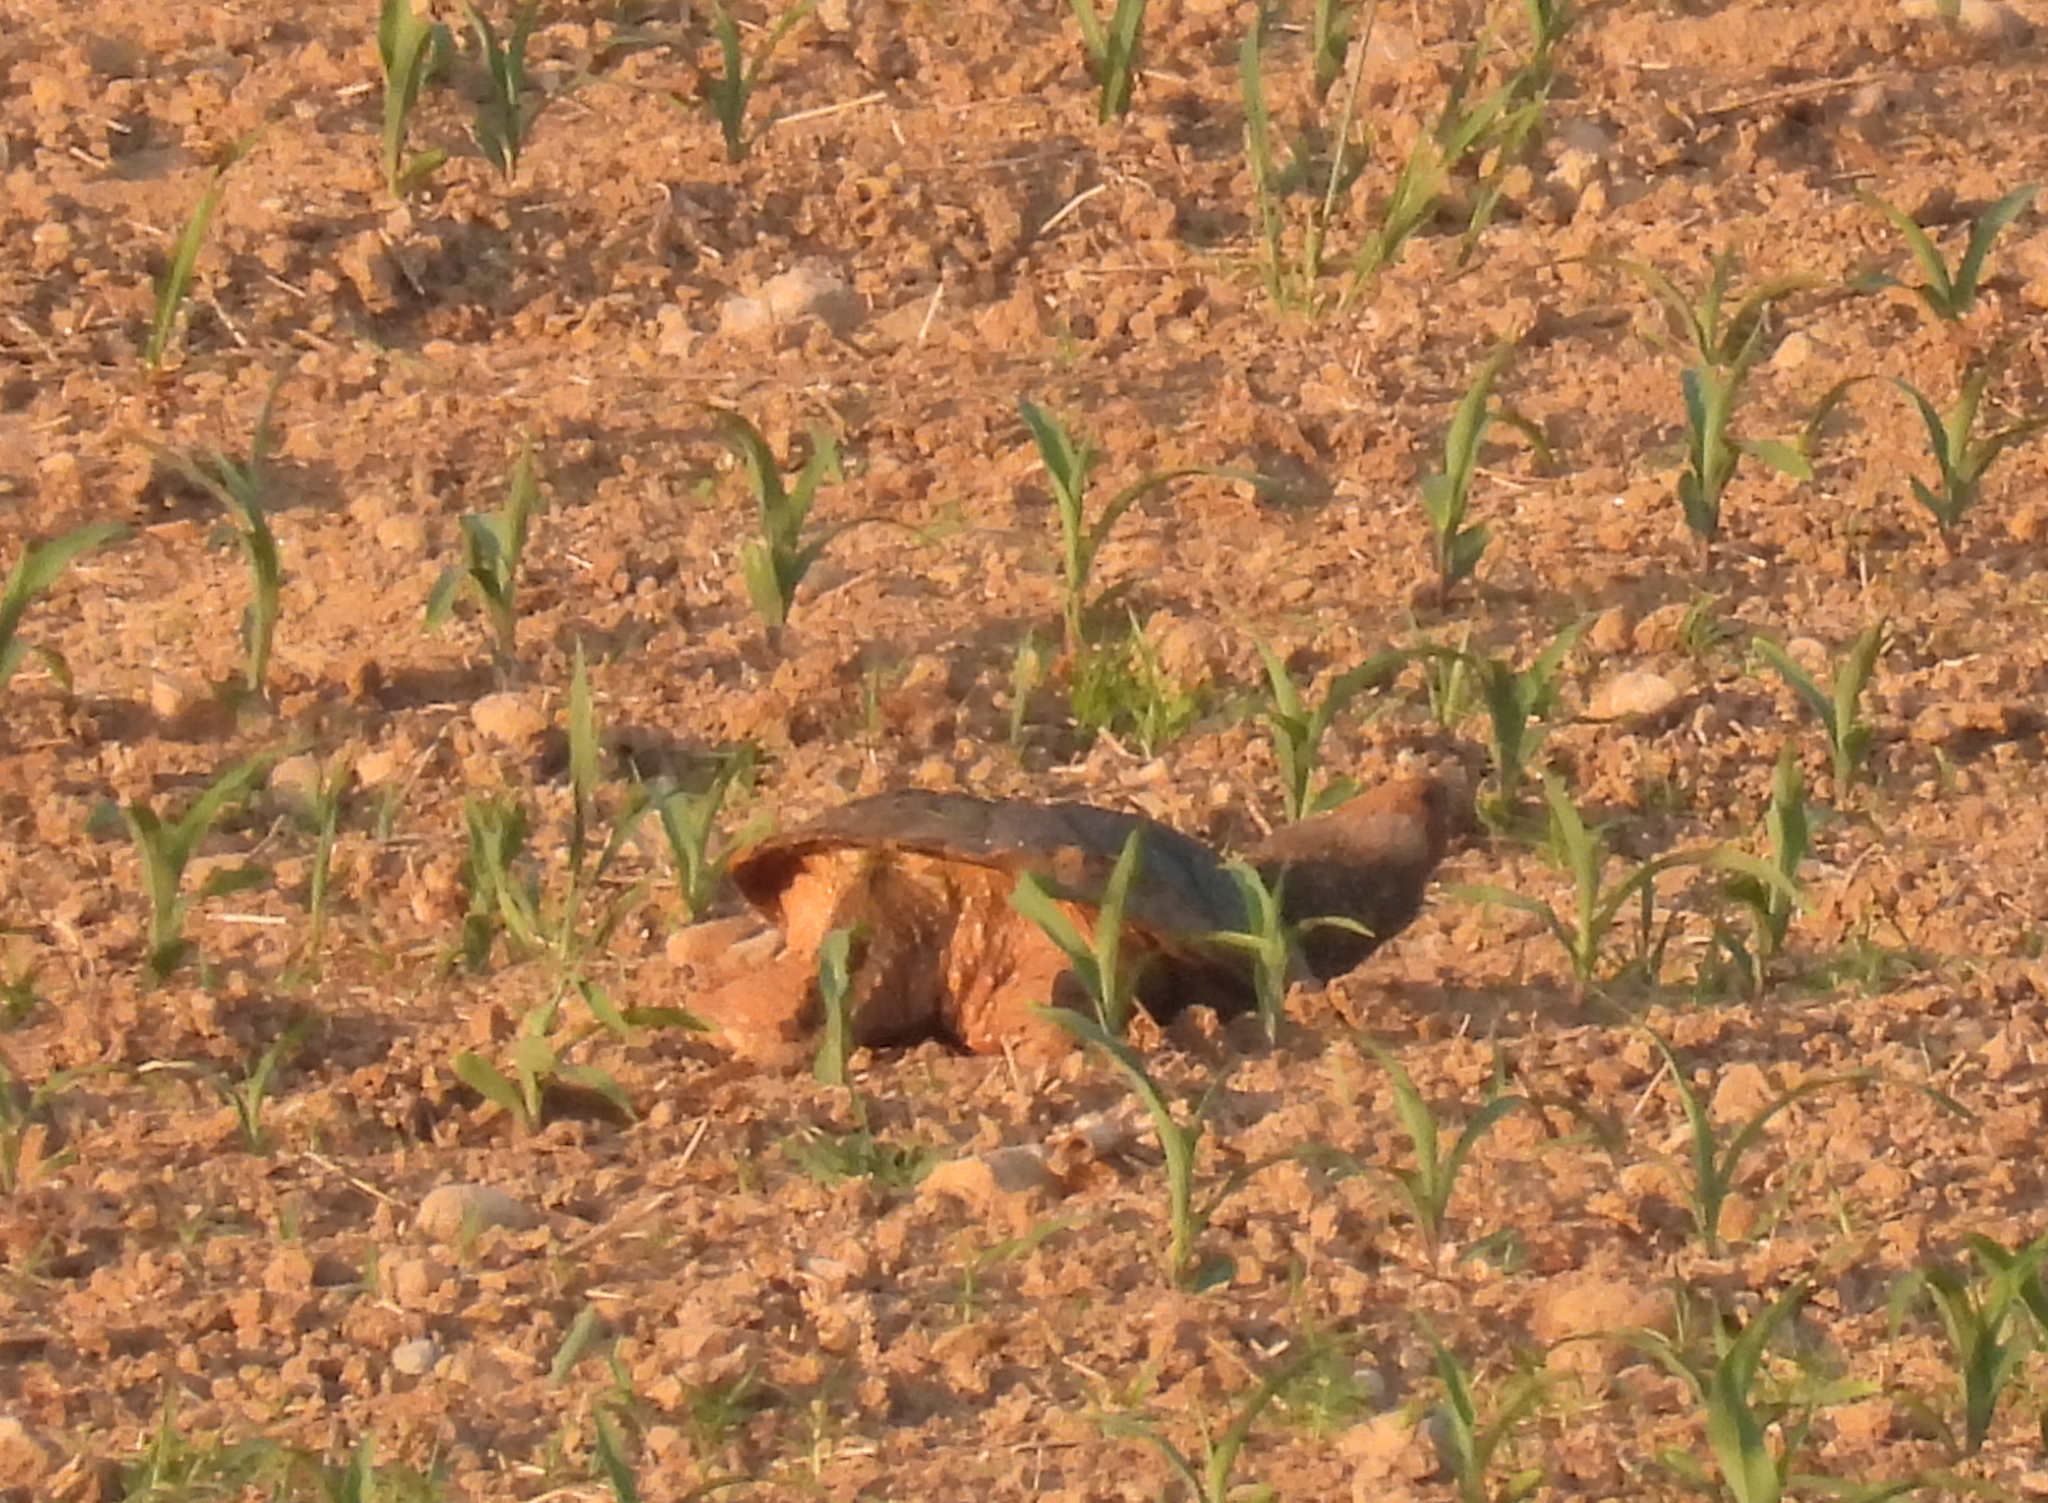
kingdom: Animalia
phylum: Chordata
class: Testudines
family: Chelydridae
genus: Chelydra
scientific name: Chelydra serpentina
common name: Common snapping turtle
